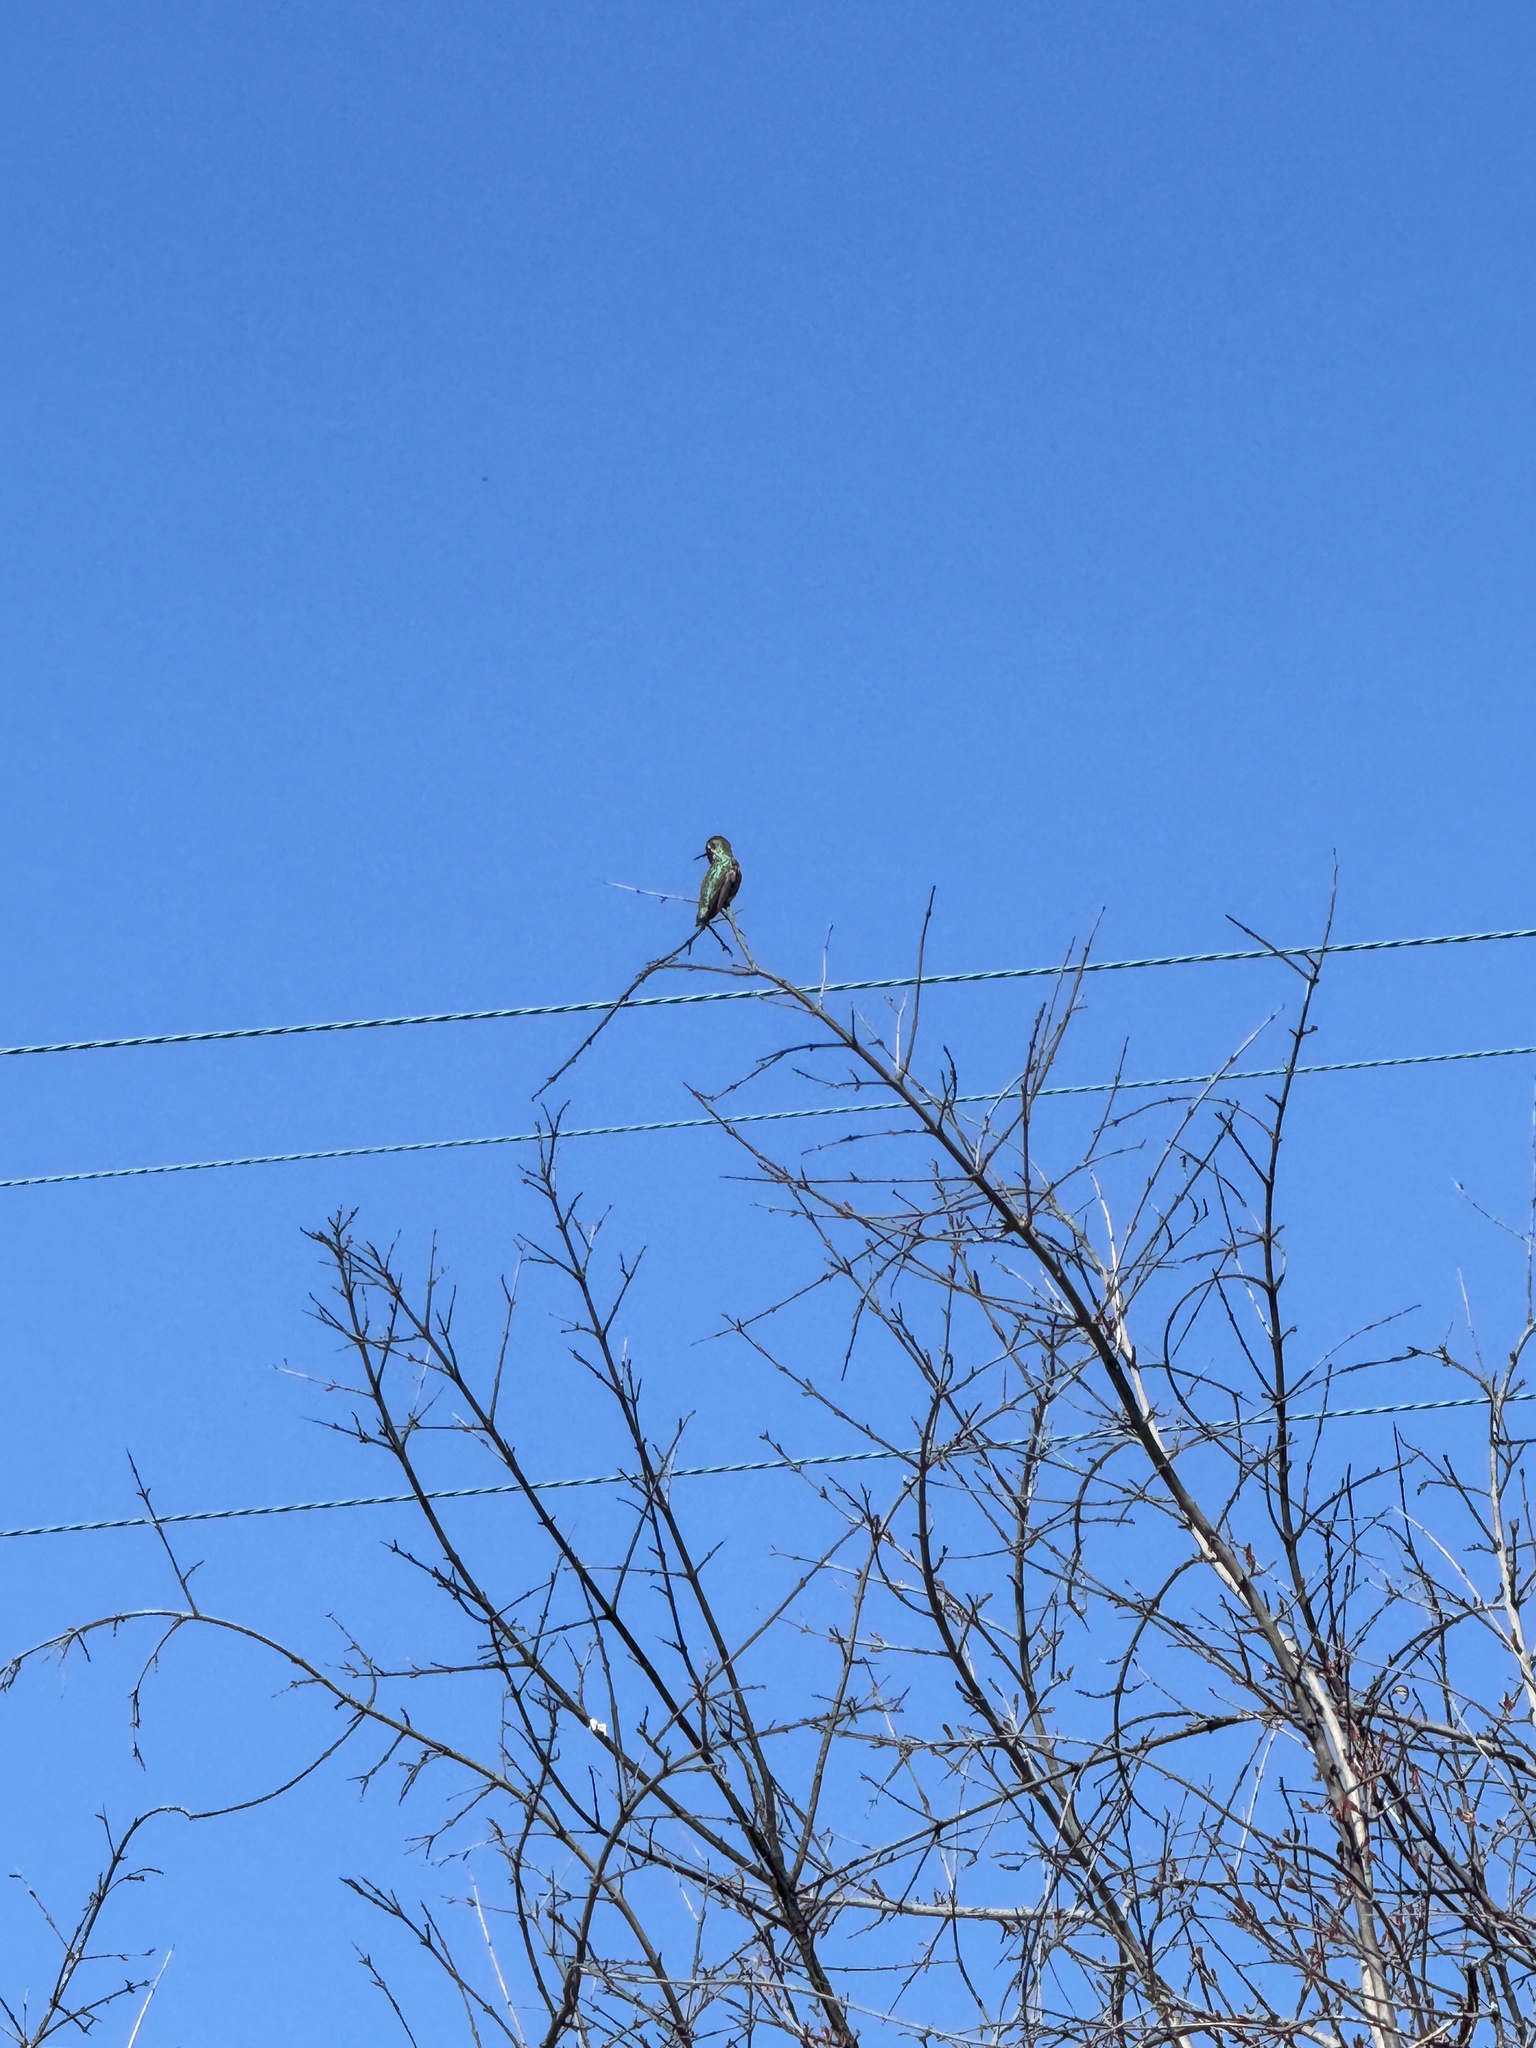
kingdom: Animalia
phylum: Chordata
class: Aves
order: Apodiformes
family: Trochilidae
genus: Calypte
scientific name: Calypte anna
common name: Anna's hummingbird
